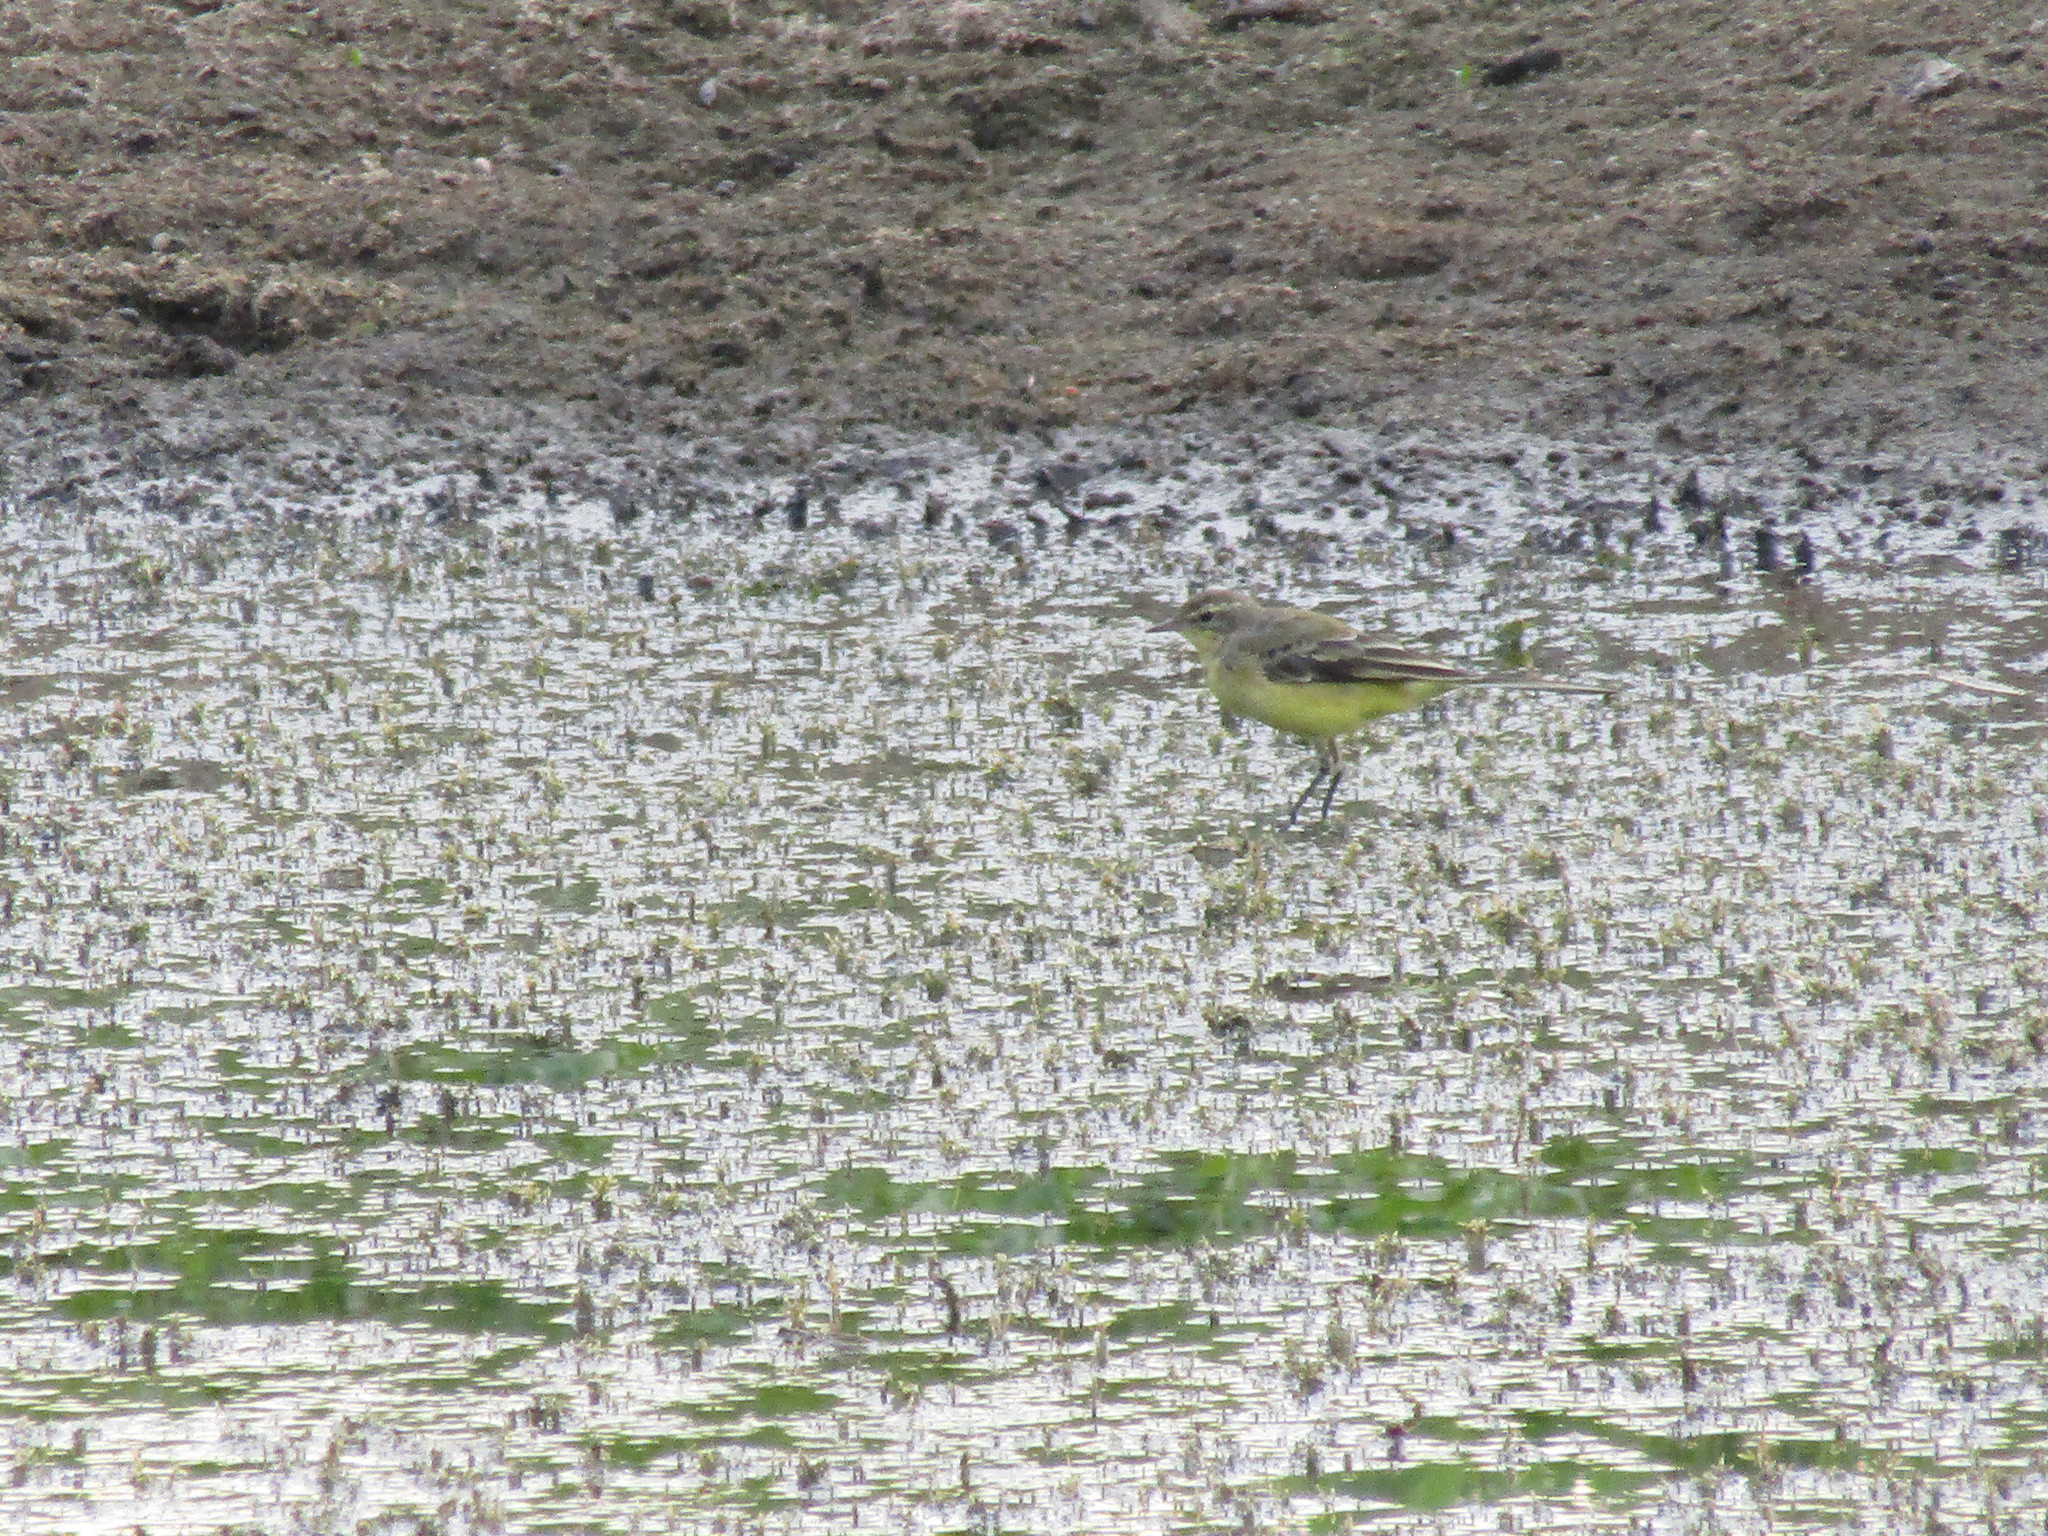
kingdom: Animalia
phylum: Chordata
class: Aves
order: Passeriformes
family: Motacillidae
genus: Motacilla
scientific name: Motacilla flava
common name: Western yellow wagtail
